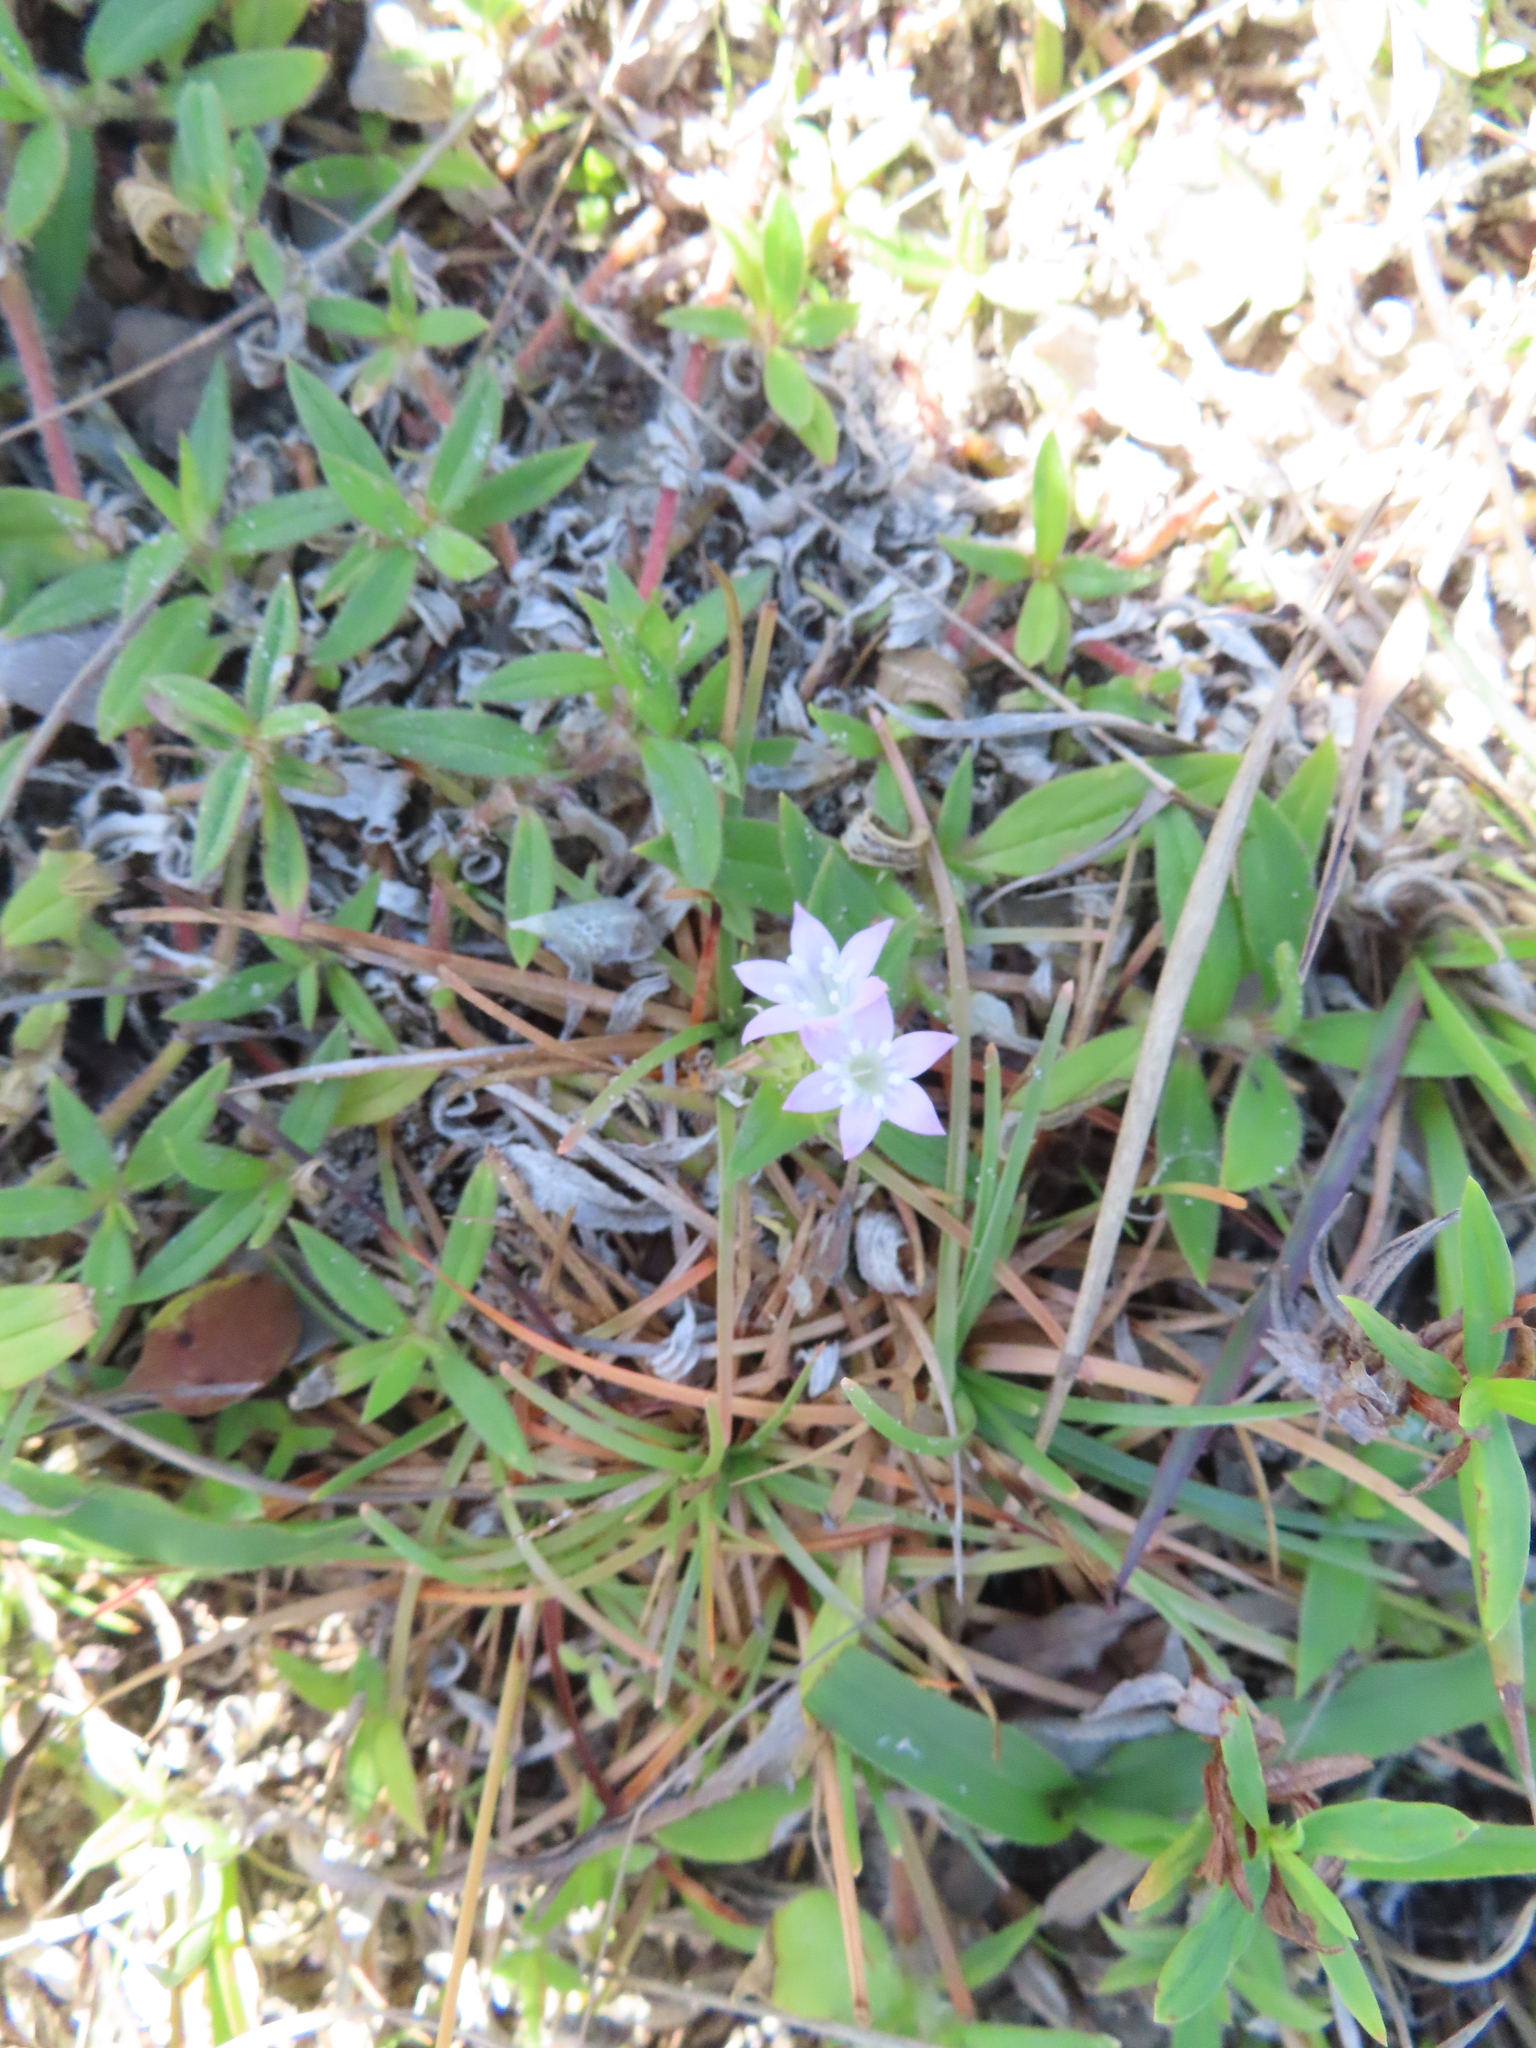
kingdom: Plantae
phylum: Tracheophyta
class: Magnoliopsida
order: Gentianales
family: Rubiaceae
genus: Richardia
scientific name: Richardia grandiflora
